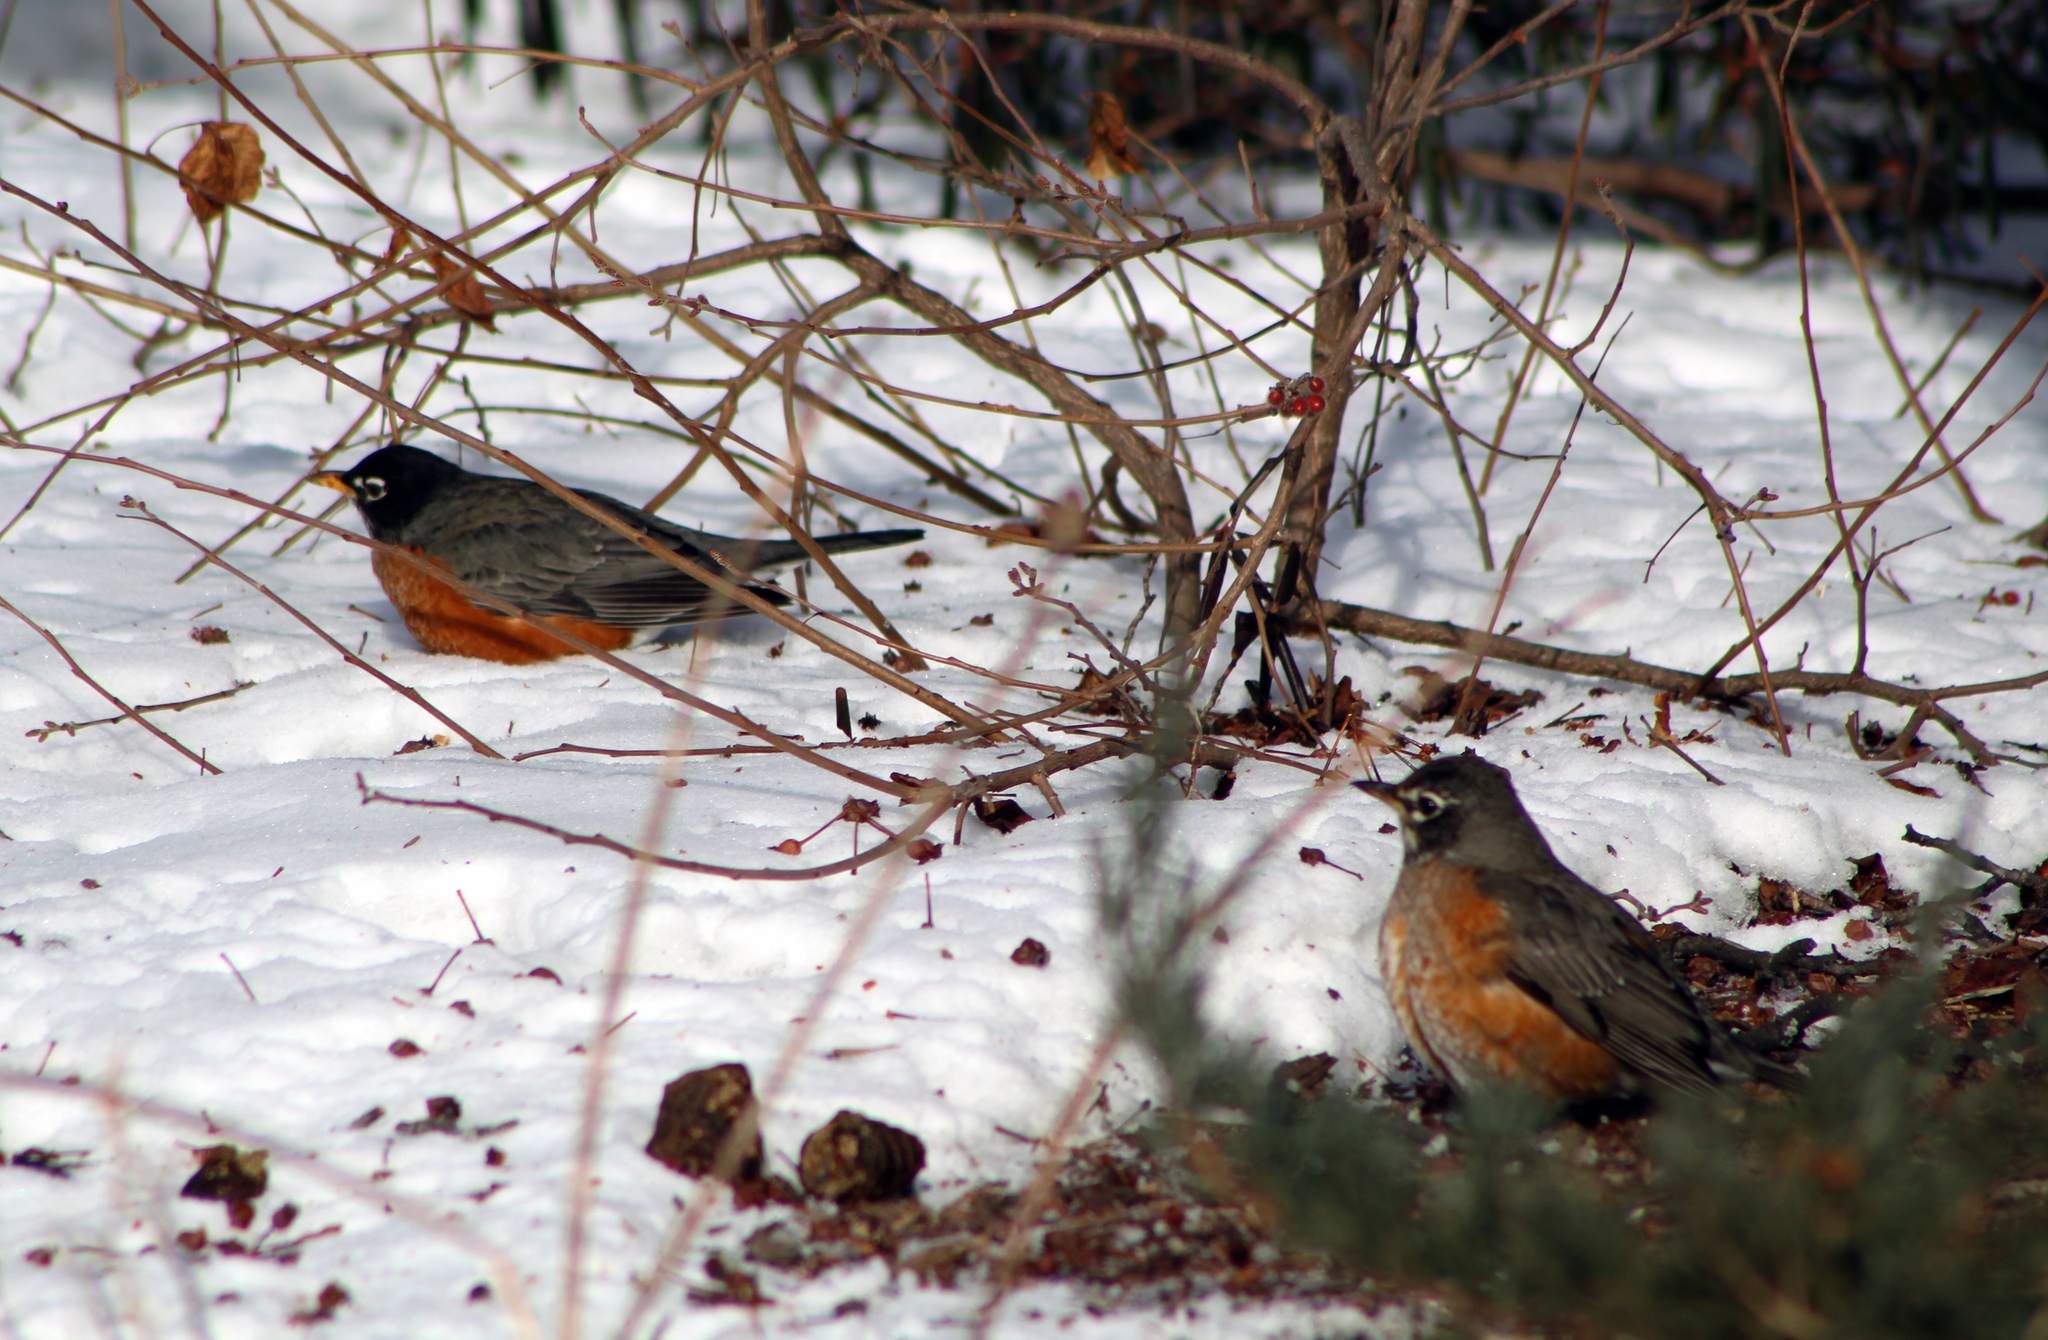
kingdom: Animalia
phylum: Chordata
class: Aves
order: Passeriformes
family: Turdidae
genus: Turdus
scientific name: Turdus migratorius
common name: American robin
